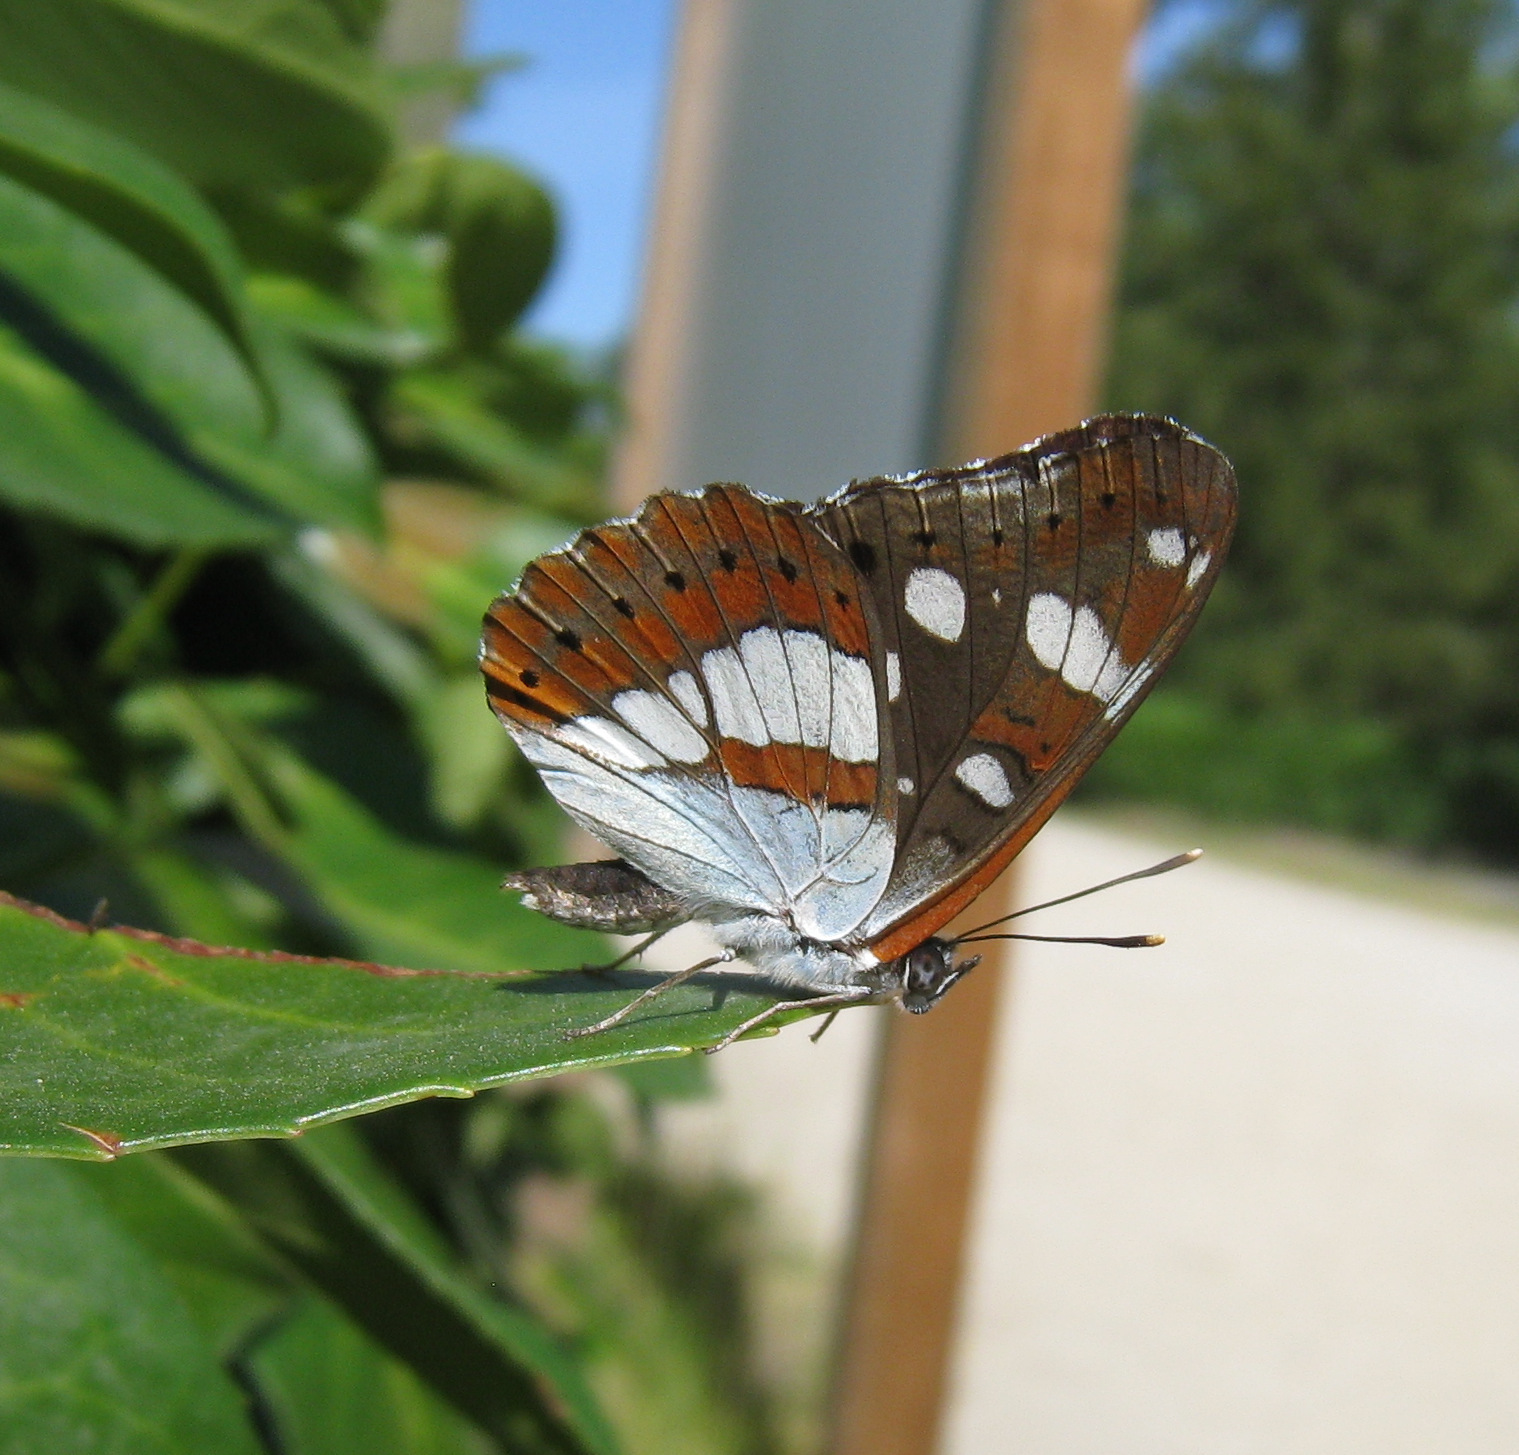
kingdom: Animalia
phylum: Arthropoda
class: Insecta
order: Lepidoptera
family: Nymphalidae
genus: Limenitis
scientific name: Limenitis reducta
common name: Southern white admiral
